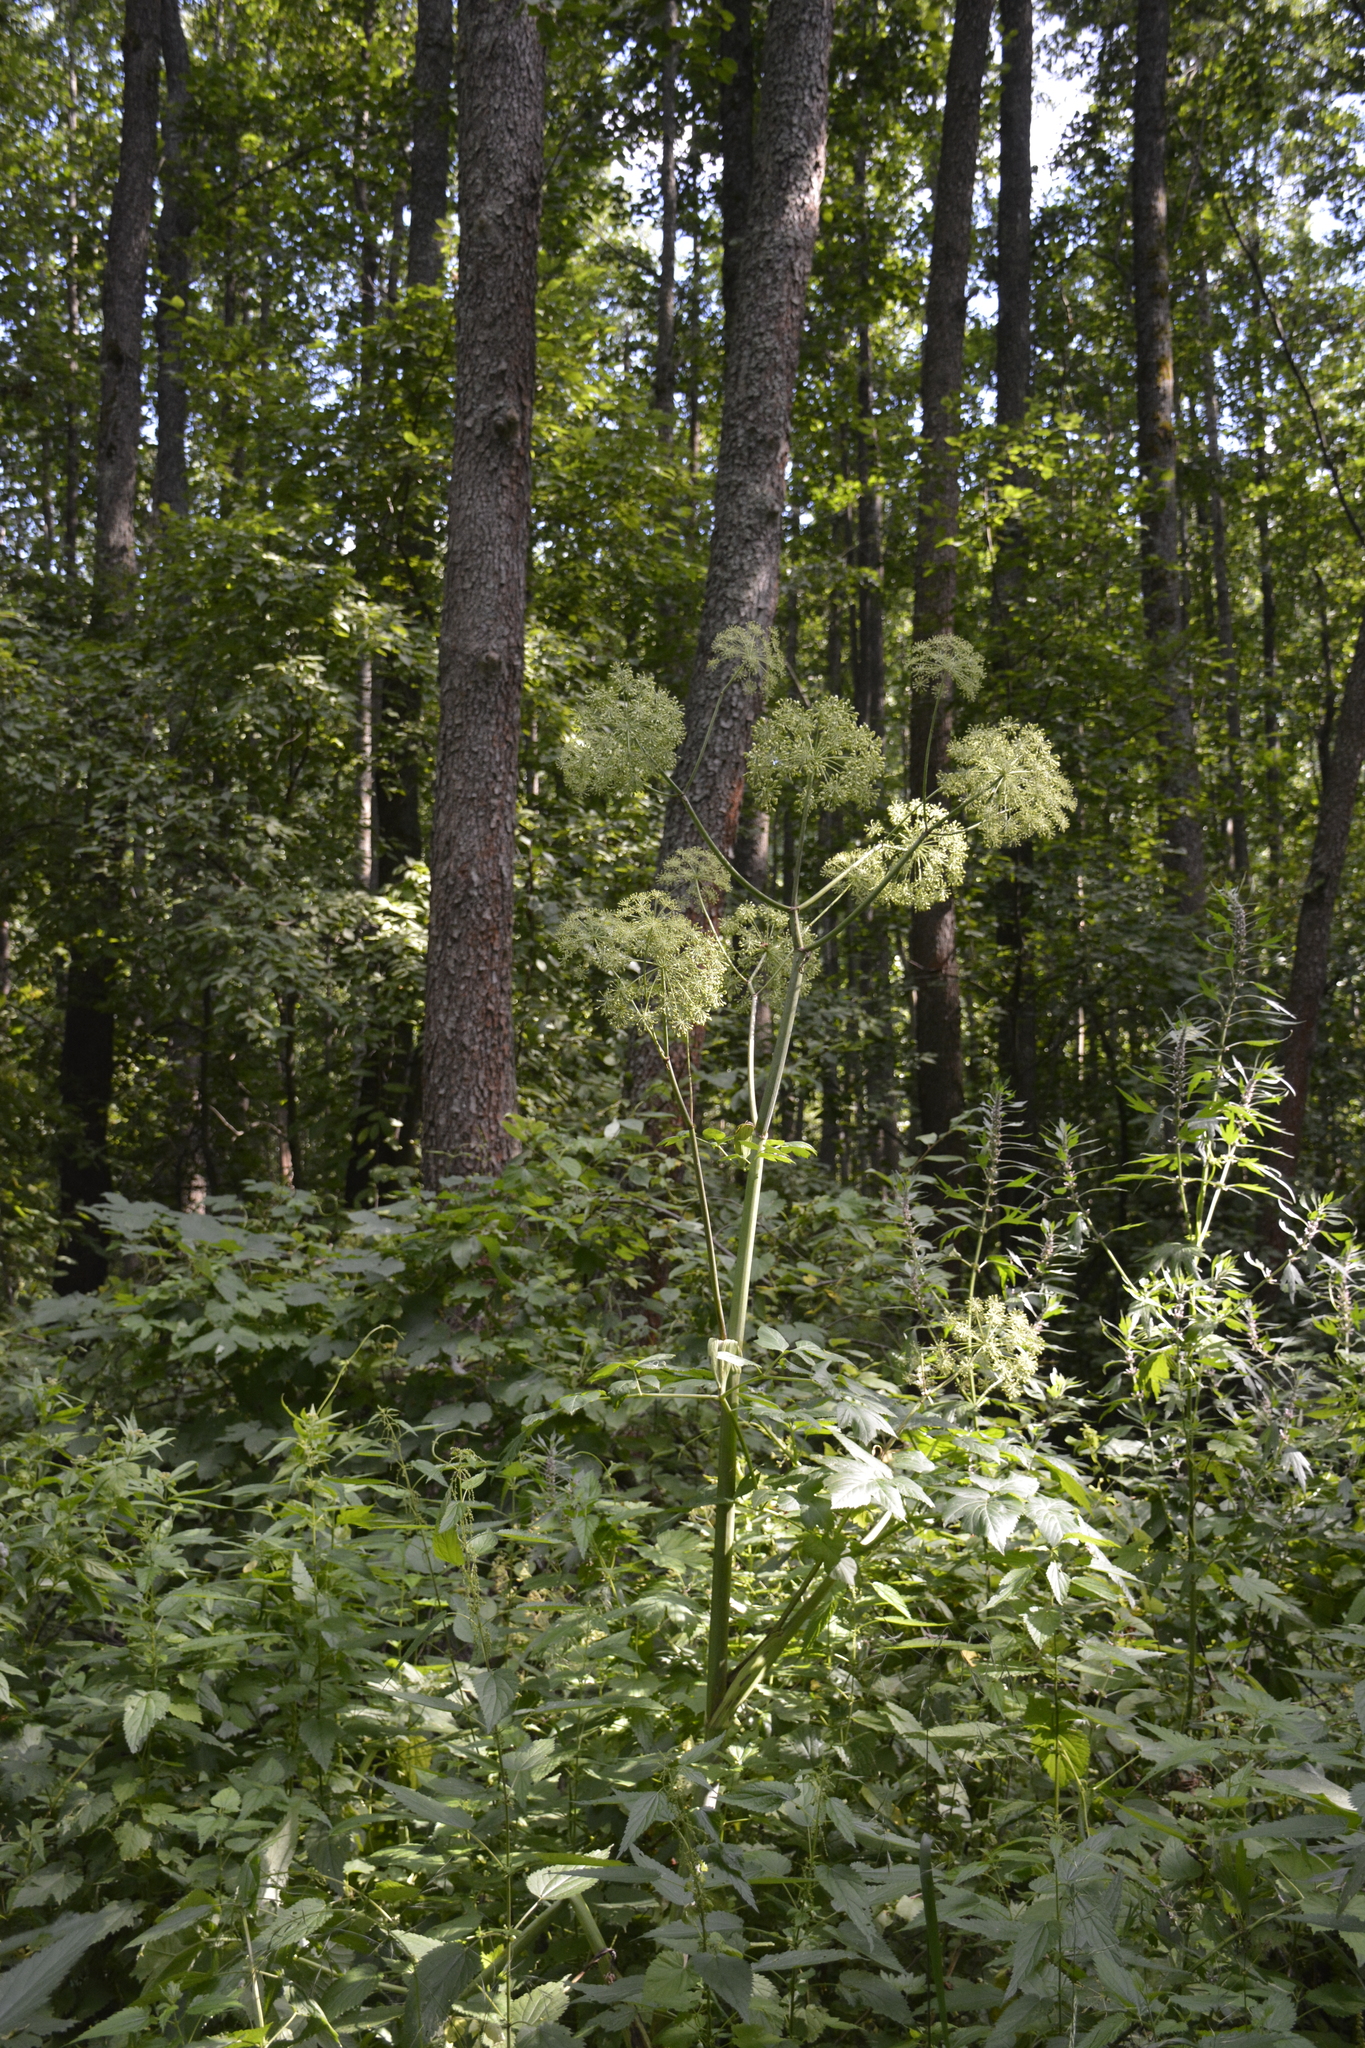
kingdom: Plantae
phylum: Tracheophyta
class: Magnoliopsida
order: Apiales
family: Apiaceae
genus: Angelica
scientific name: Angelica archangelica
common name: Garden angelica
